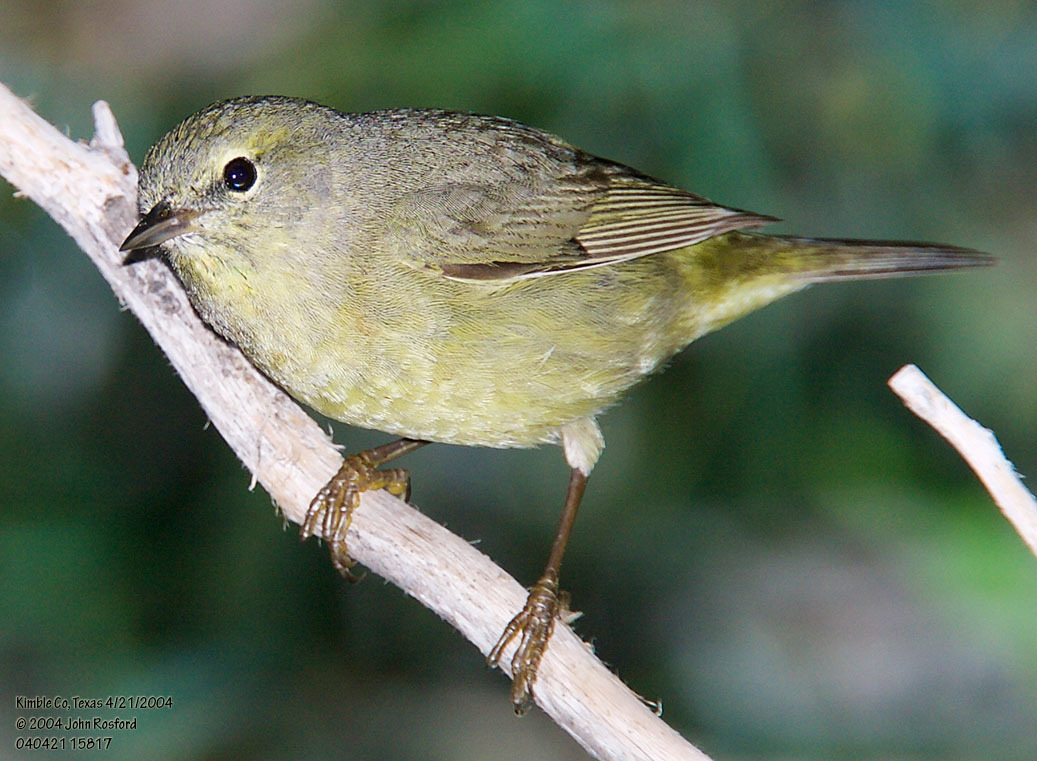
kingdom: Animalia
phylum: Chordata
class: Aves
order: Passeriformes
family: Parulidae
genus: Leiothlypis
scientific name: Leiothlypis celata
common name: Orange-crowned warbler
